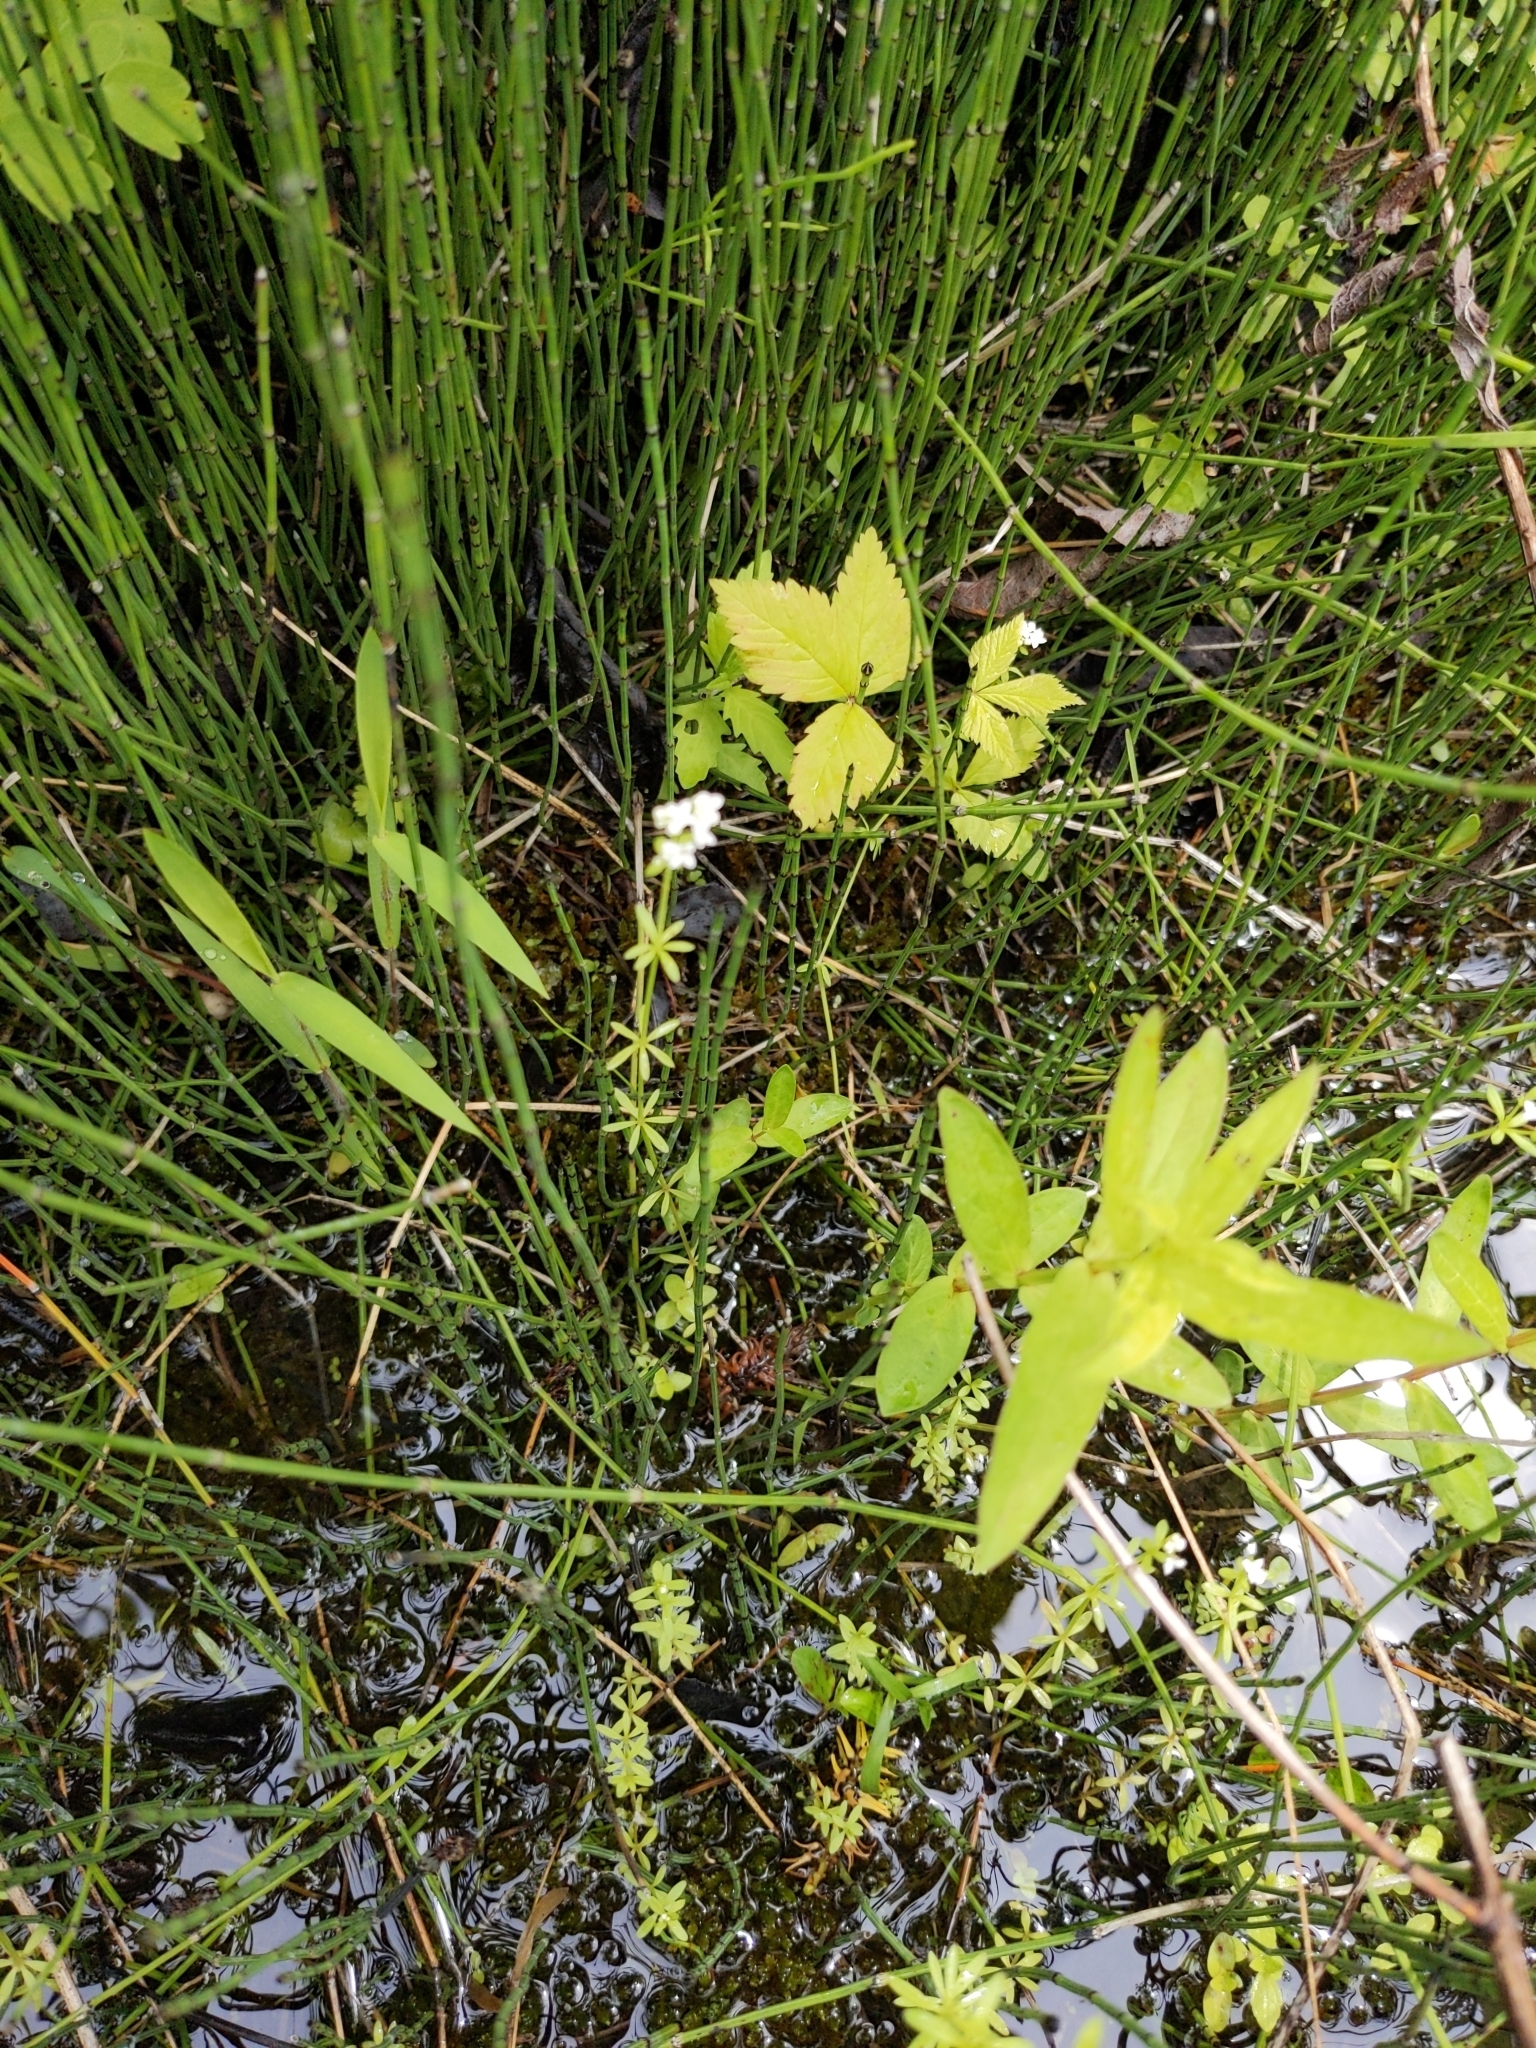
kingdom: Plantae
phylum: Tracheophyta
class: Magnoliopsida
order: Gentianales
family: Rubiaceae
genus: Galium
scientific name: Galium palustre
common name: Common marsh-bedstraw
